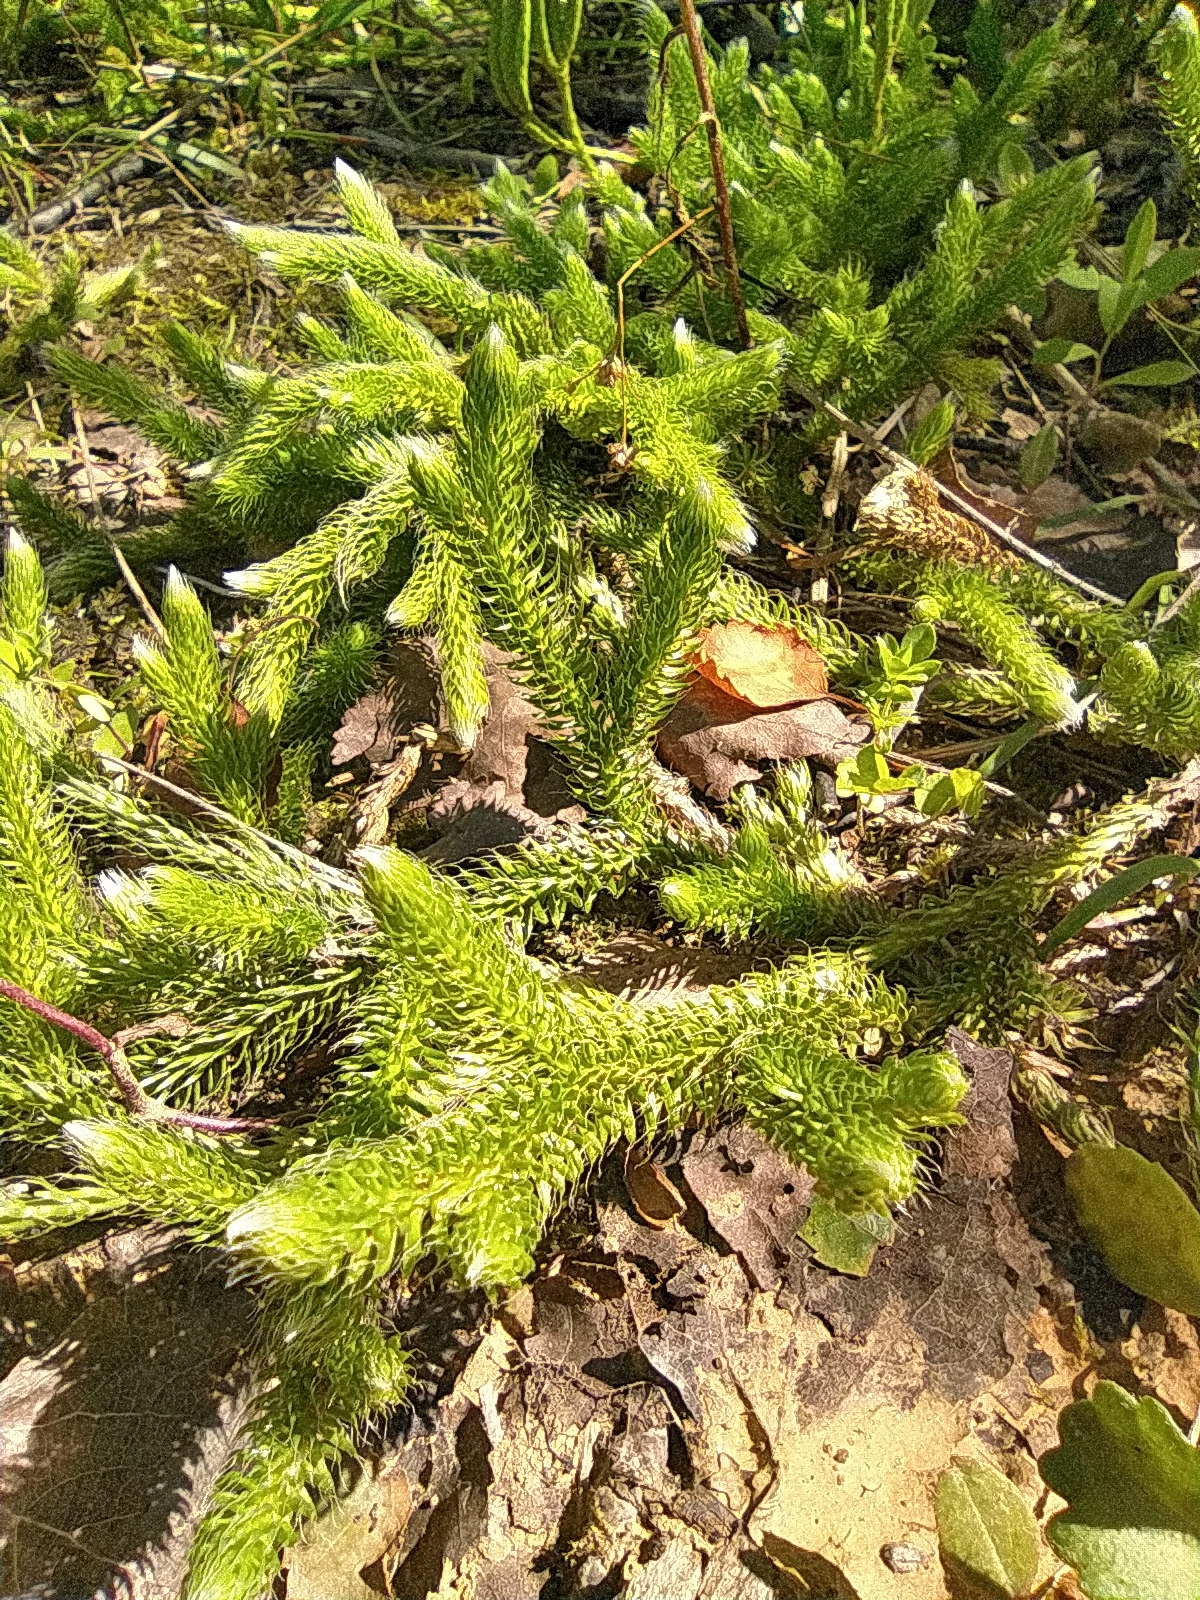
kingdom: Plantae
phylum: Tracheophyta
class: Lycopodiopsida
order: Lycopodiales
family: Lycopodiaceae
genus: Lycopodium
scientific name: Lycopodium clavatum
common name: Stag's-horn clubmoss
